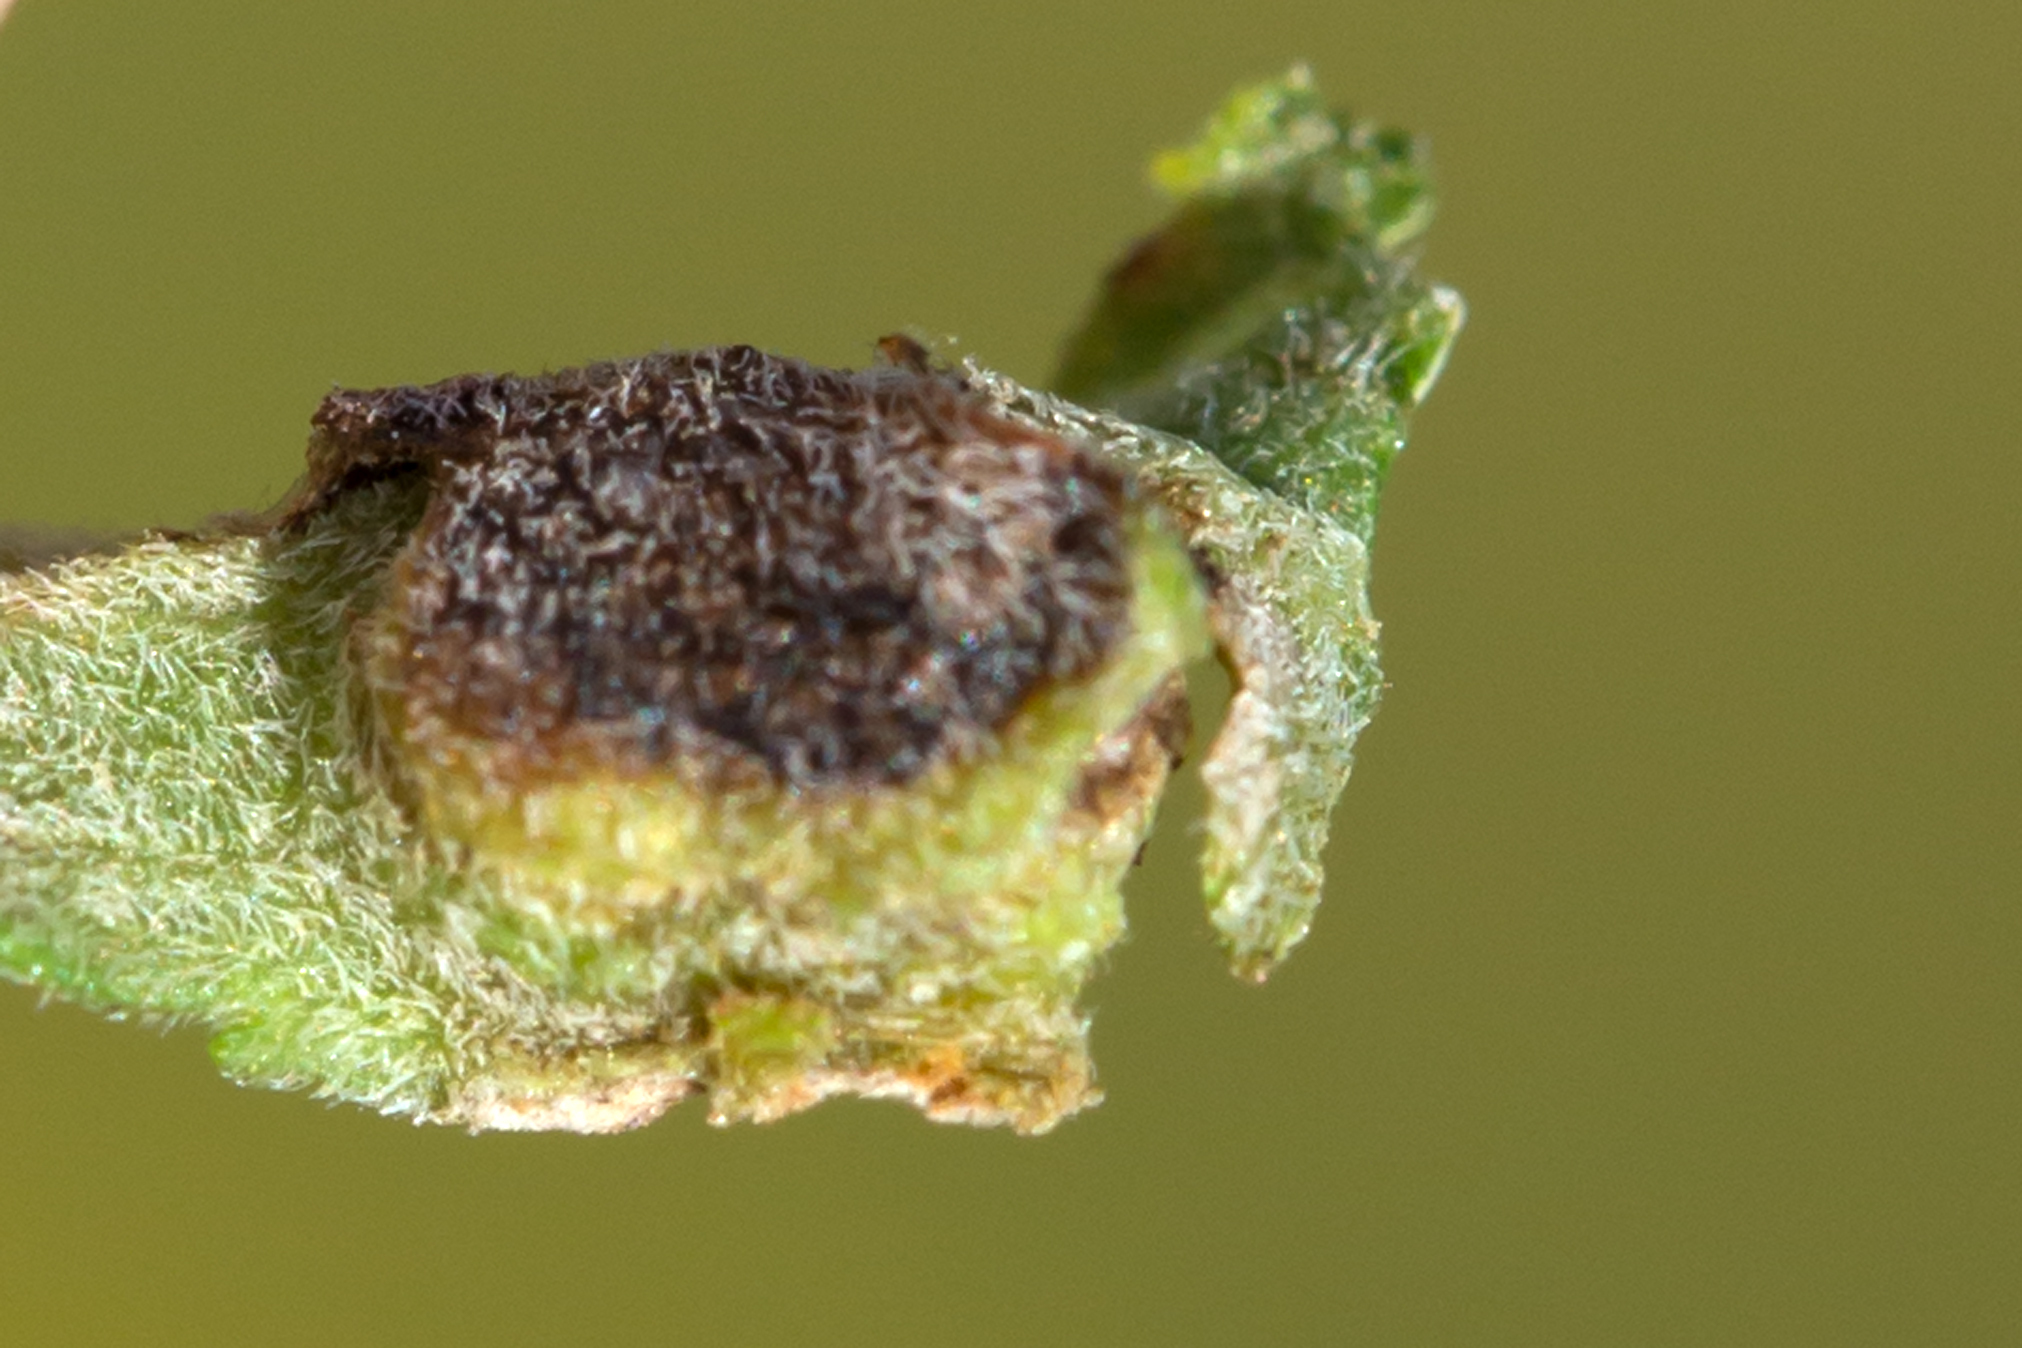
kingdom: Animalia
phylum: Arthropoda
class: Insecta
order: Diptera
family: Cecidomyiidae
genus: Asphondylia
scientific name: Asphondylia solidaginis
